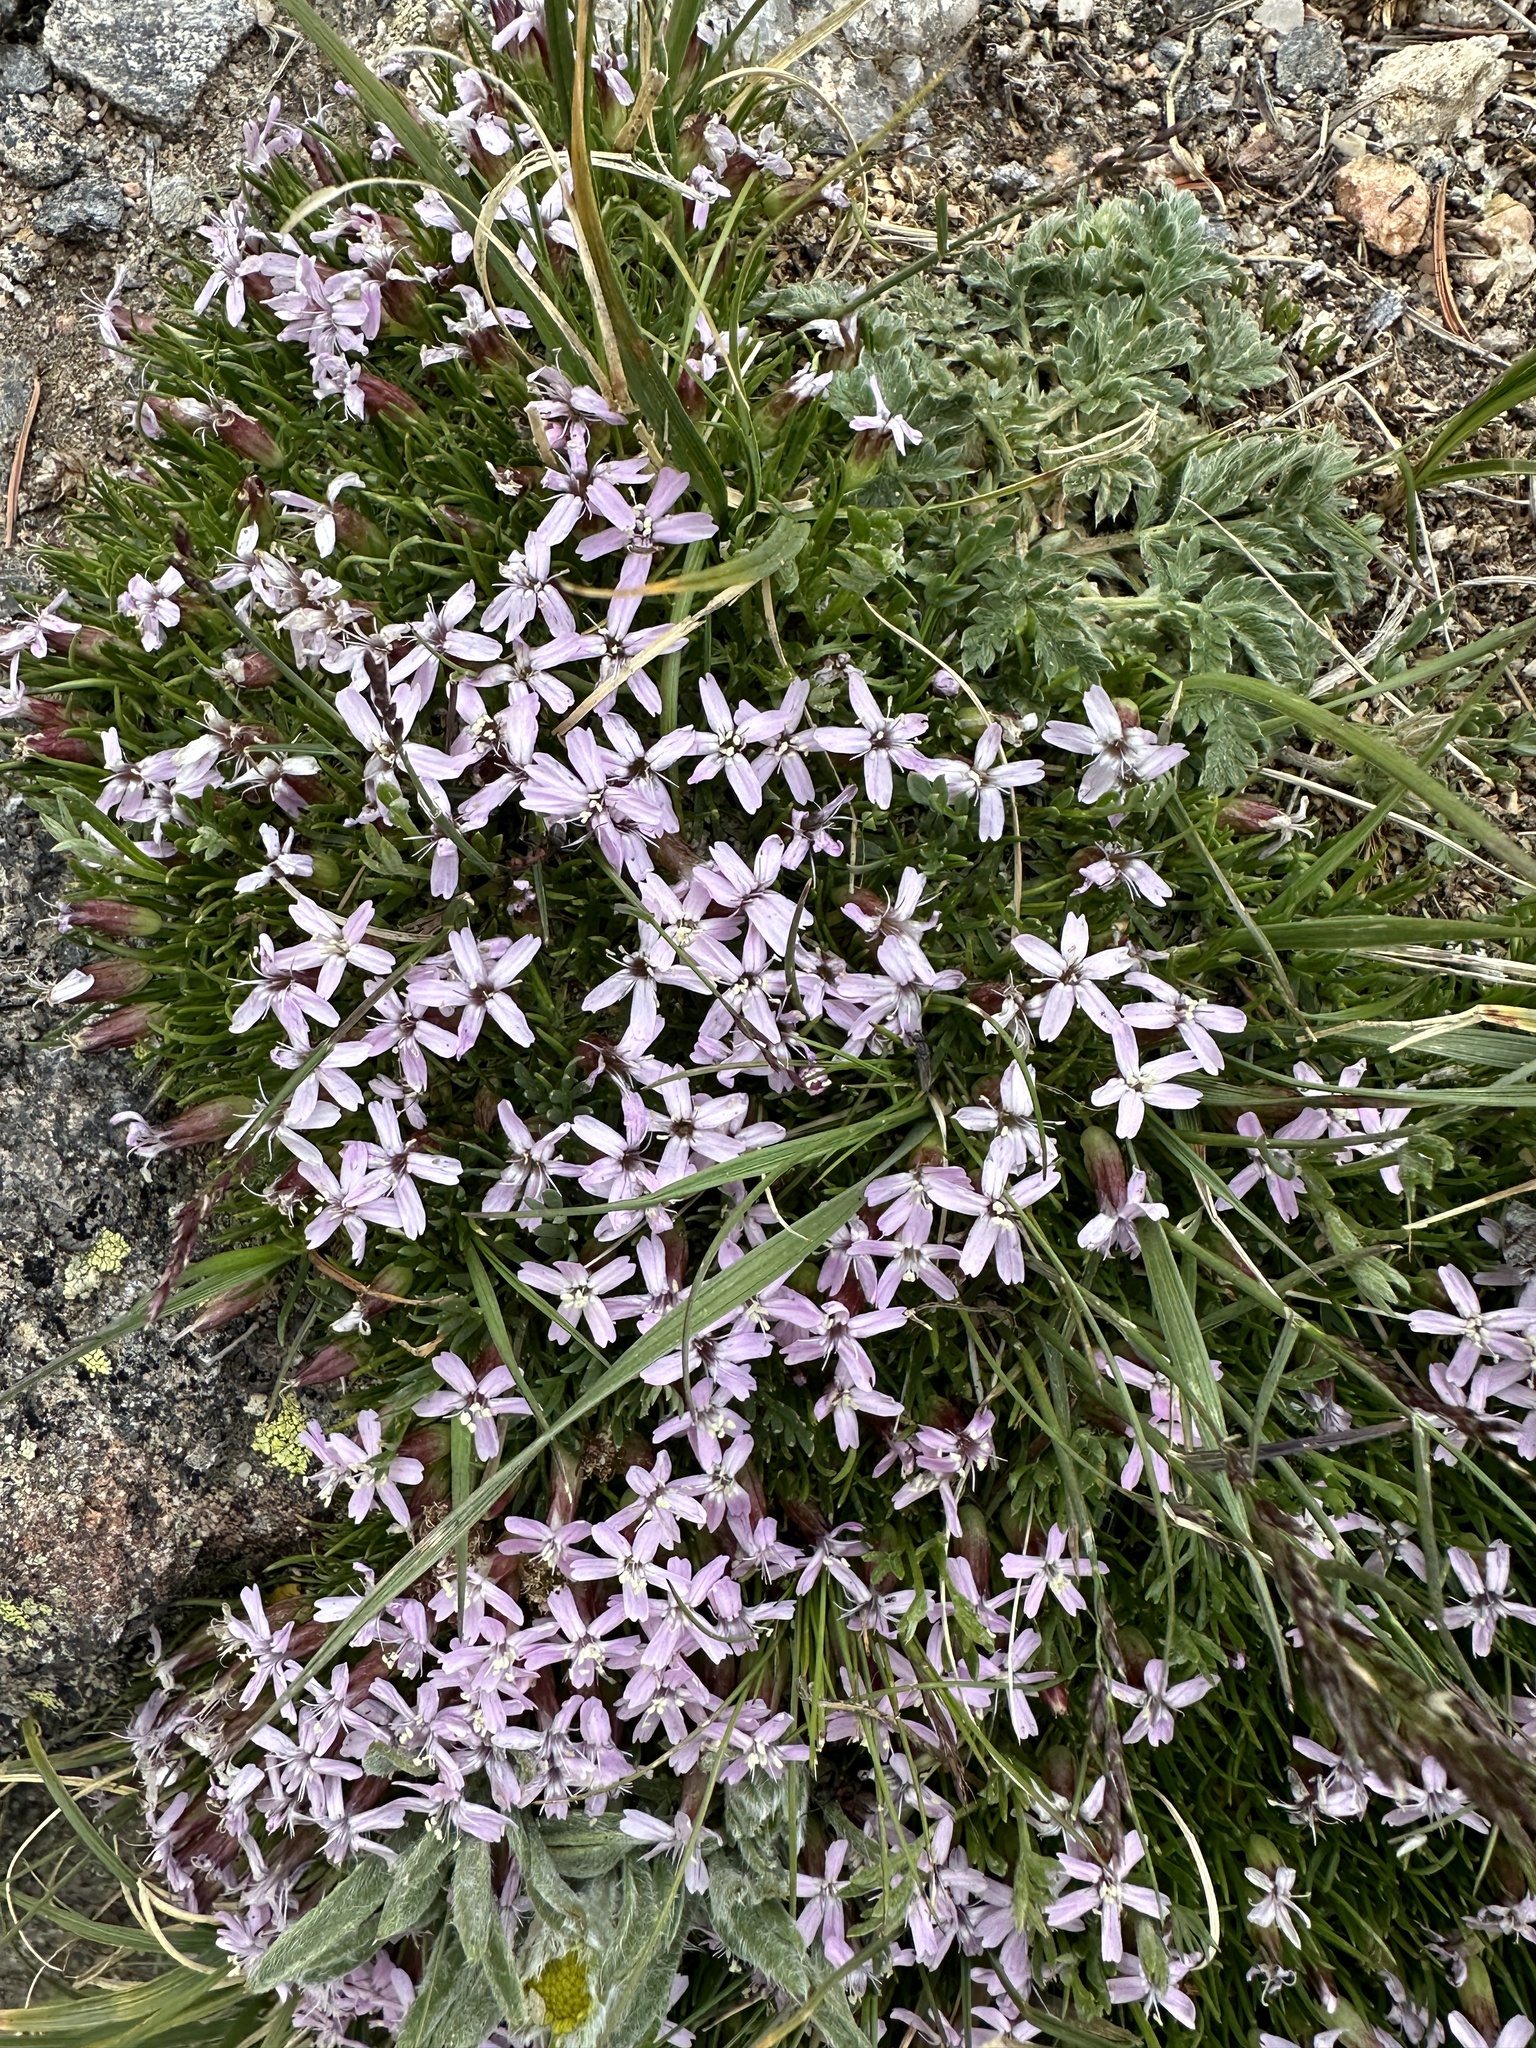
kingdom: Plantae
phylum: Tracheophyta
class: Magnoliopsida
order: Caryophyllales
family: Caryophyllaceae
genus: Silene
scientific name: Silene acaulis
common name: Moss campion
